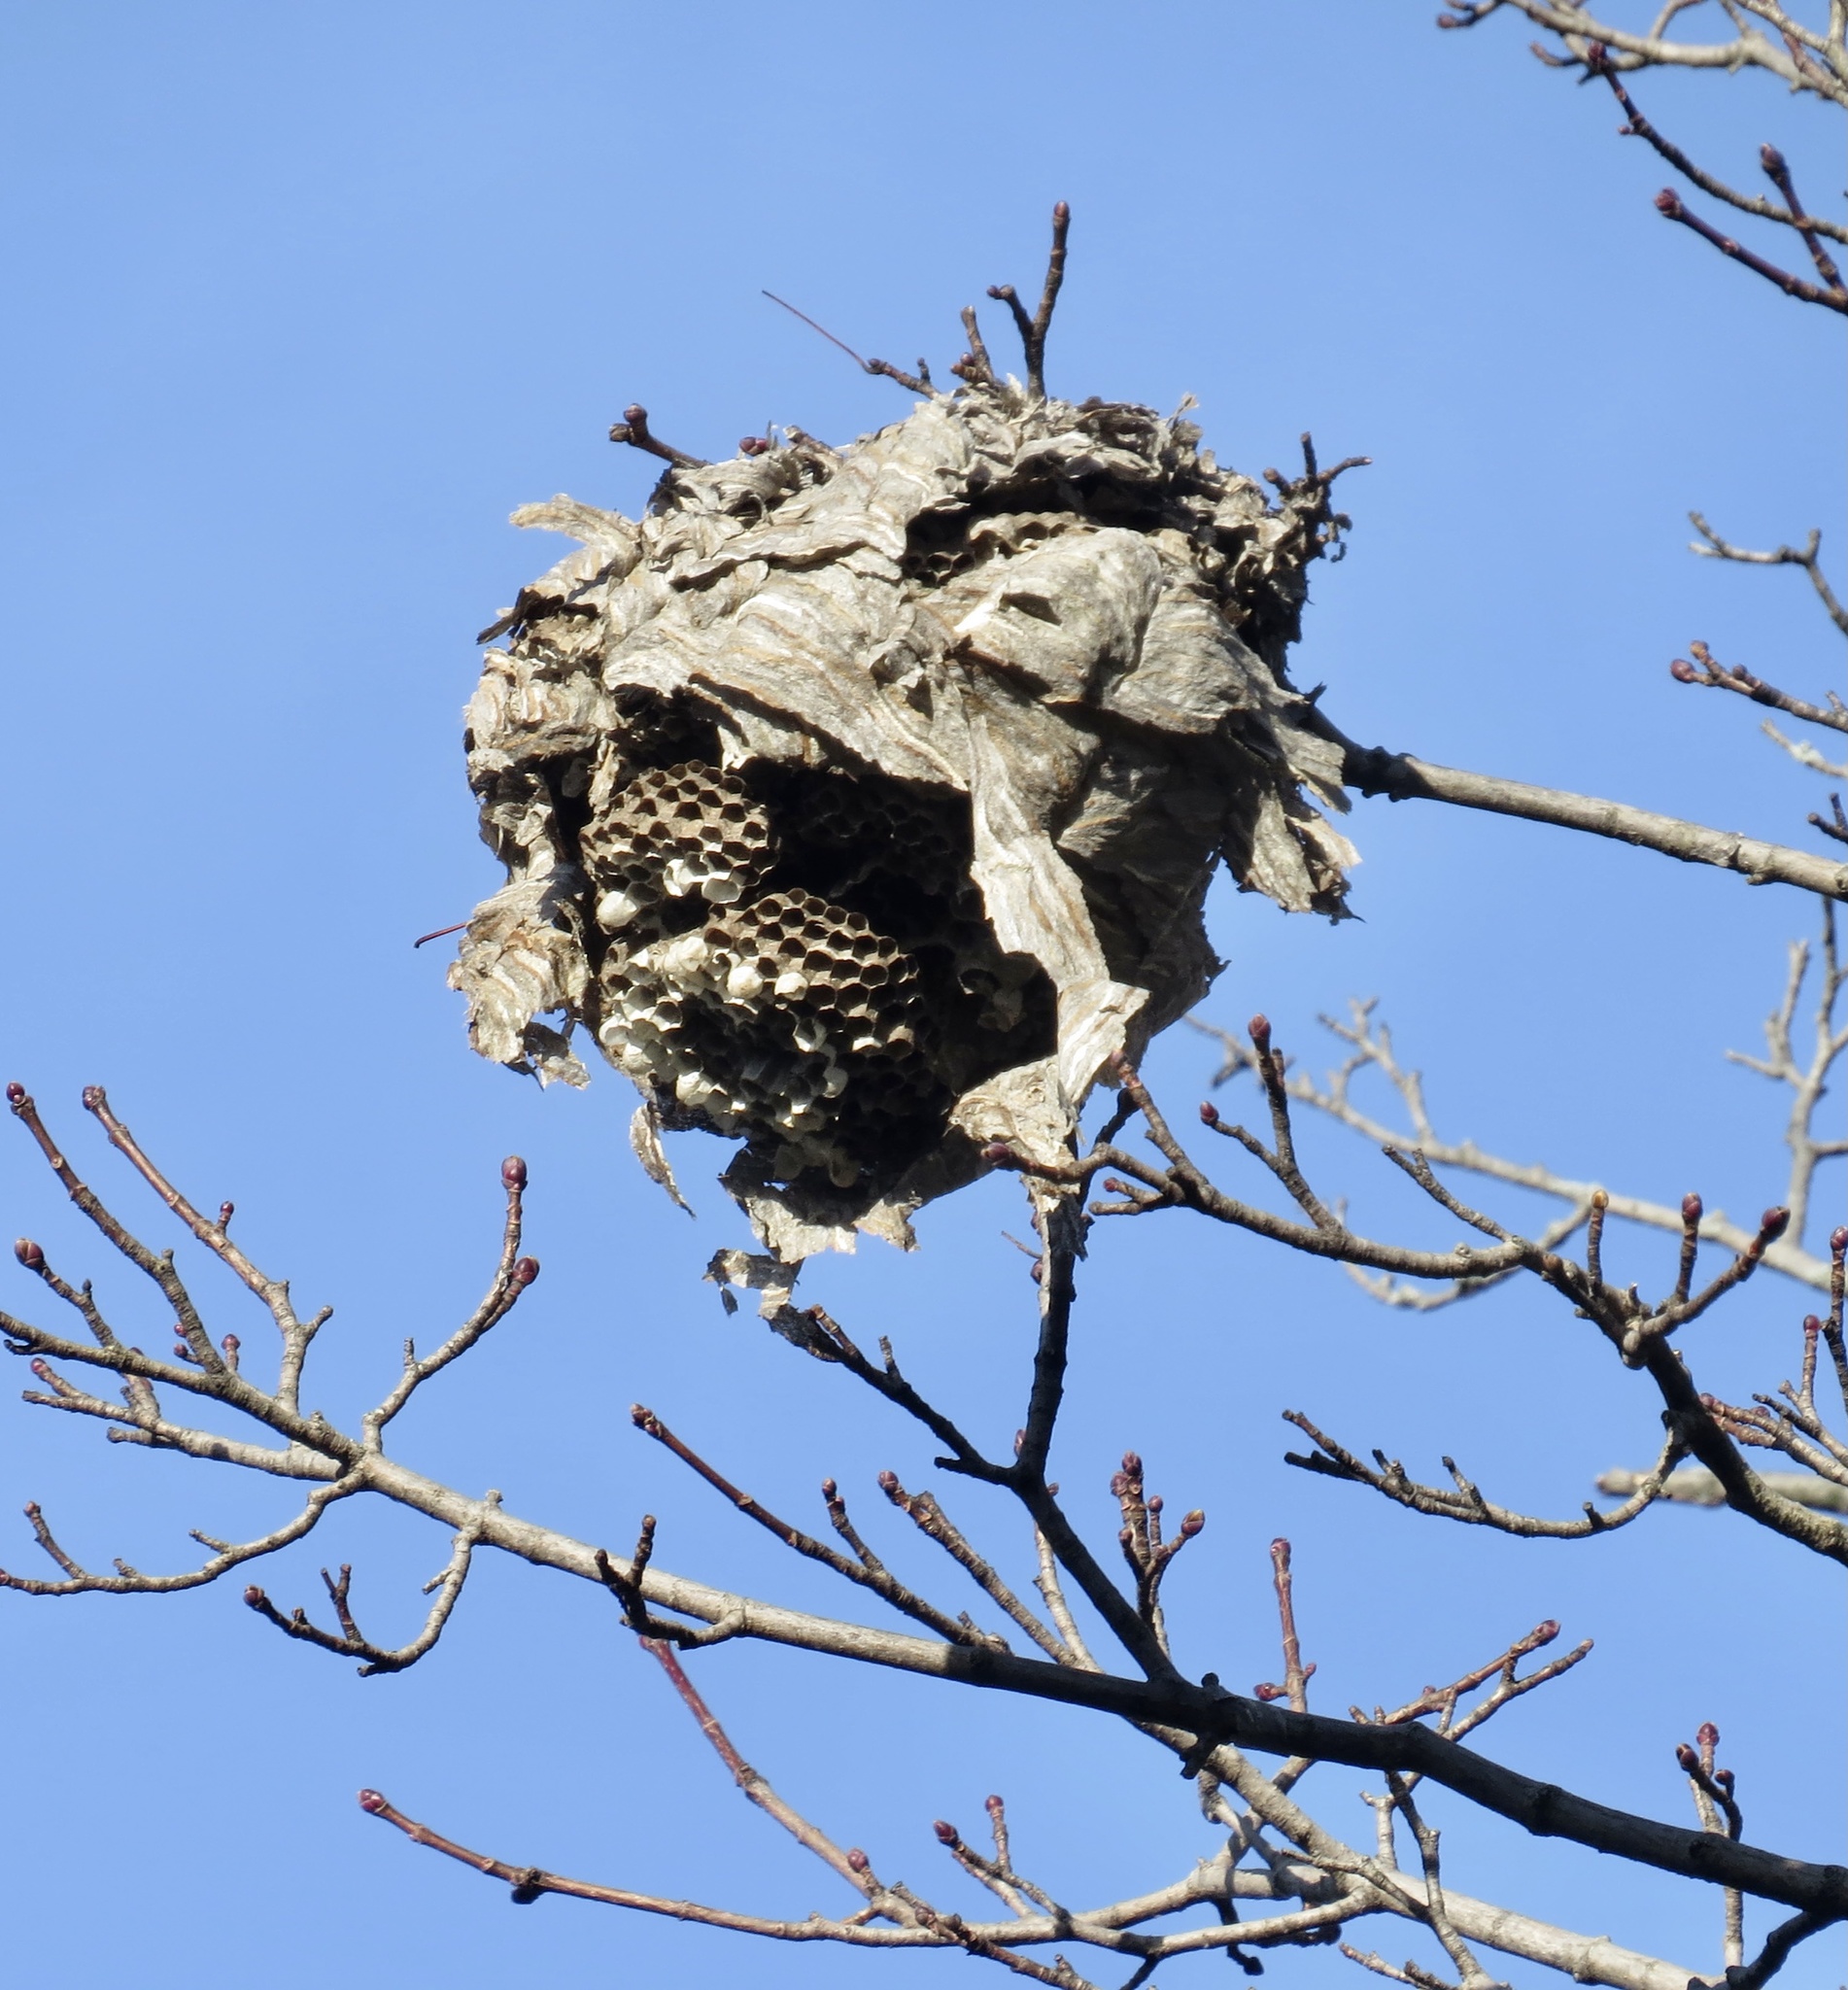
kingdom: Animalia
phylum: Arthropoda
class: Insecta
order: Hymenoptera
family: Vespidae
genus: Dolichovespula
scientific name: Dolichovespula maculata
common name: Bald-faced hornet
